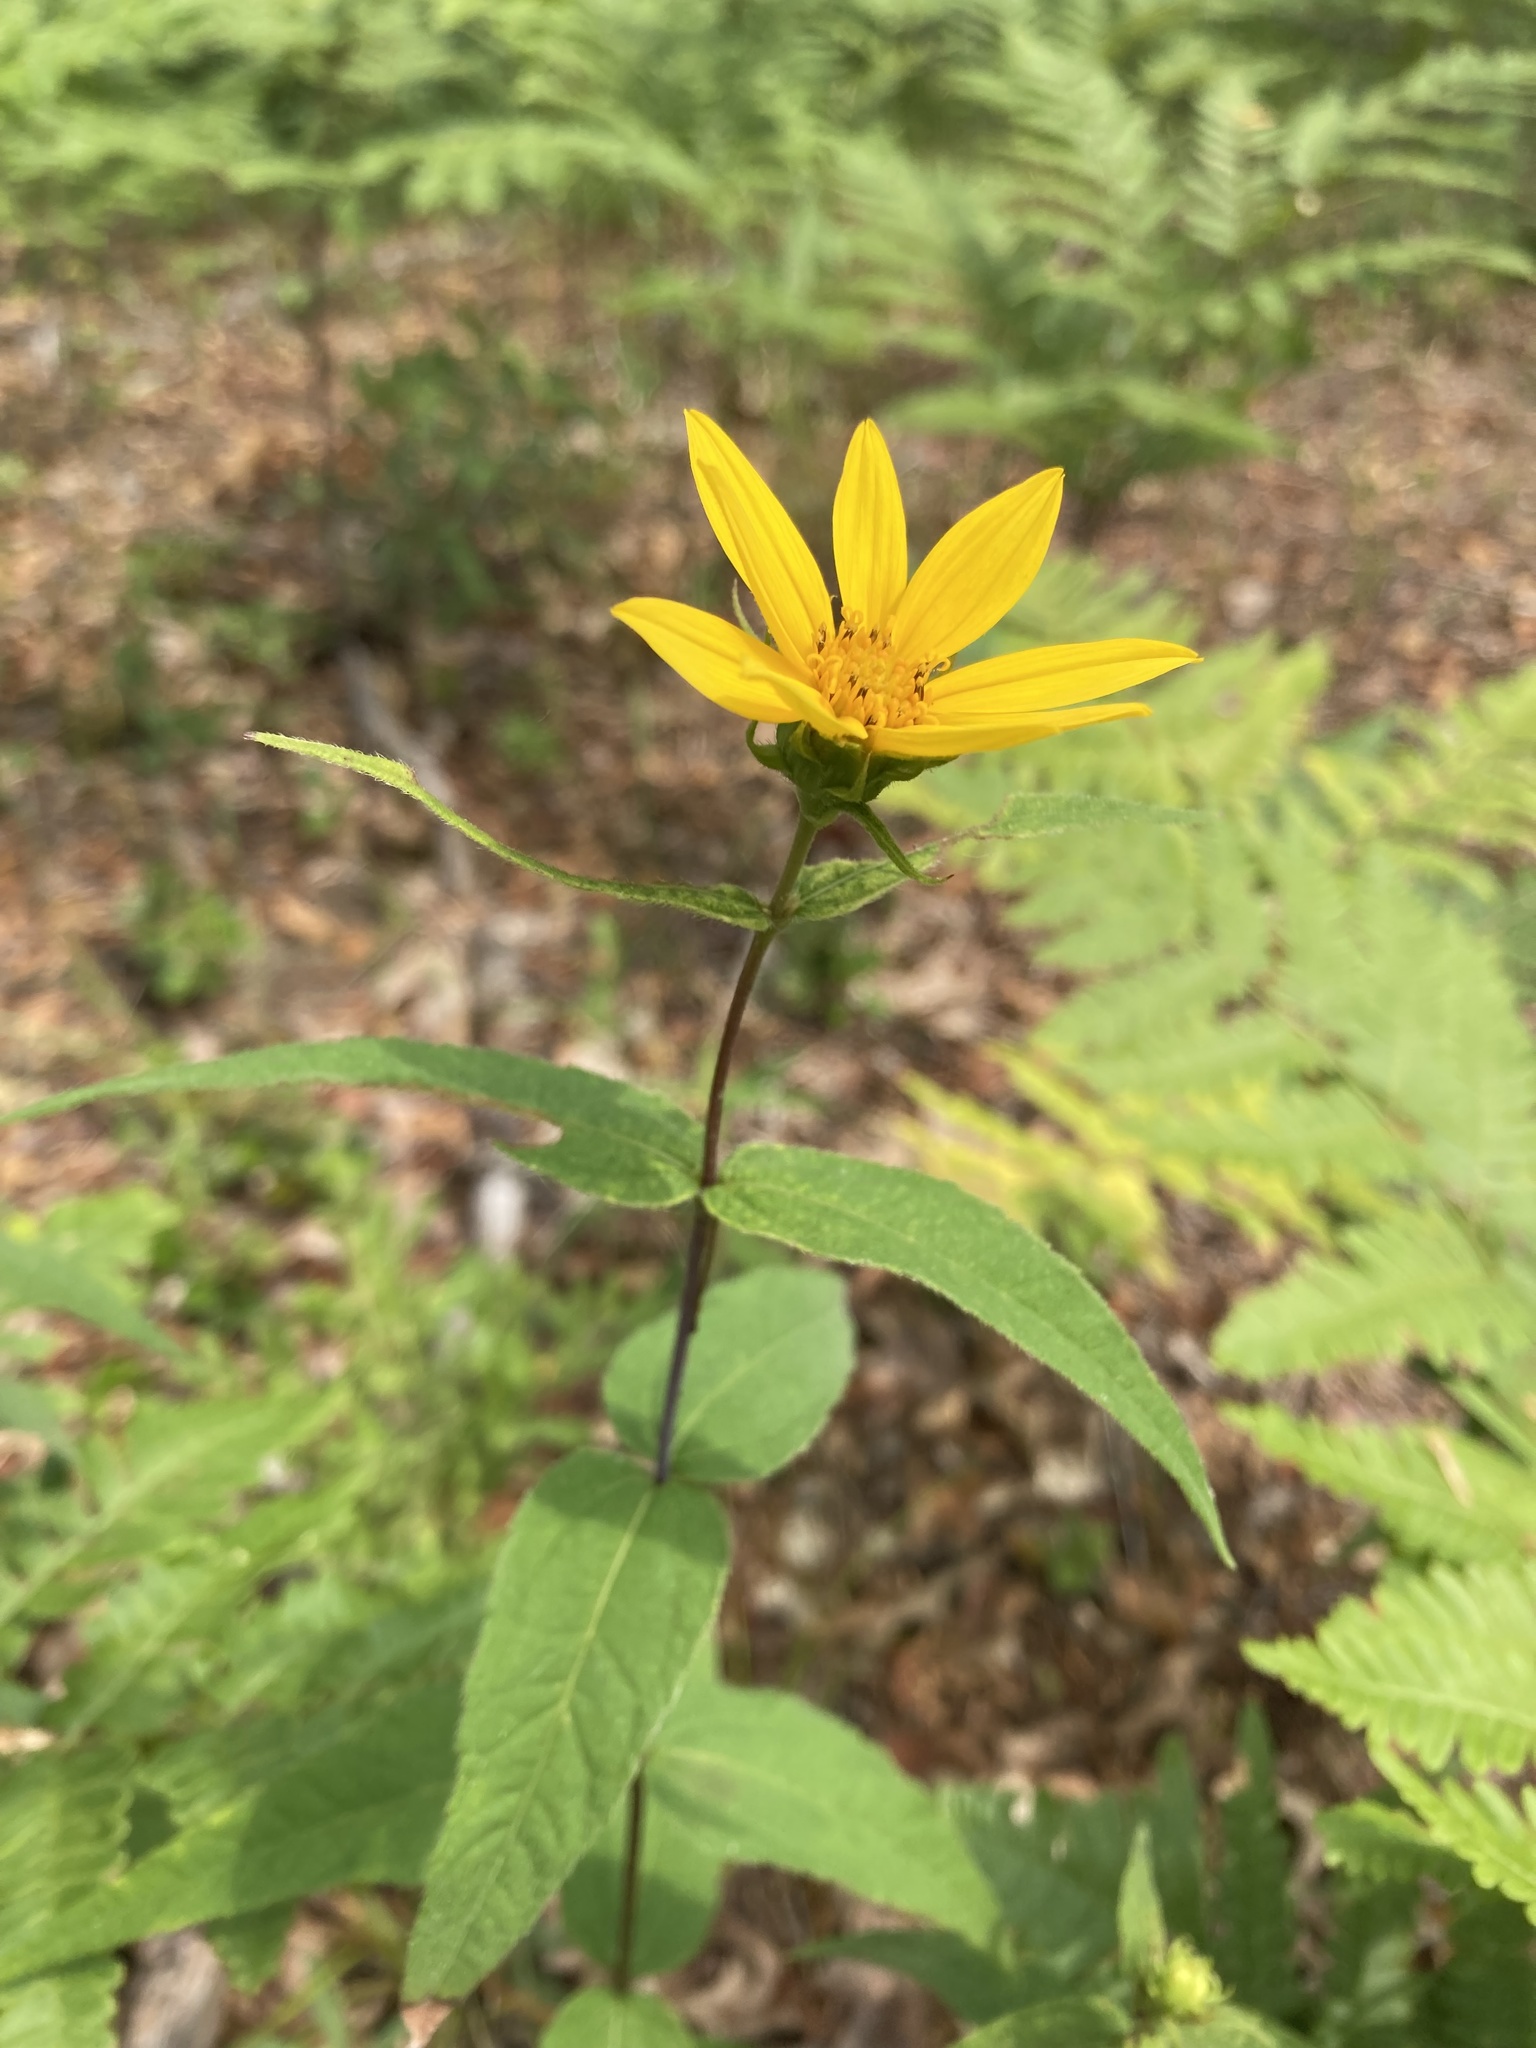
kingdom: Plantae
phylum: Tracheophyta
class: Magnoliopsida
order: Asterales
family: Asteraceae
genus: Helianthus
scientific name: Helianthus divaricatus
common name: Divergent sunflower
